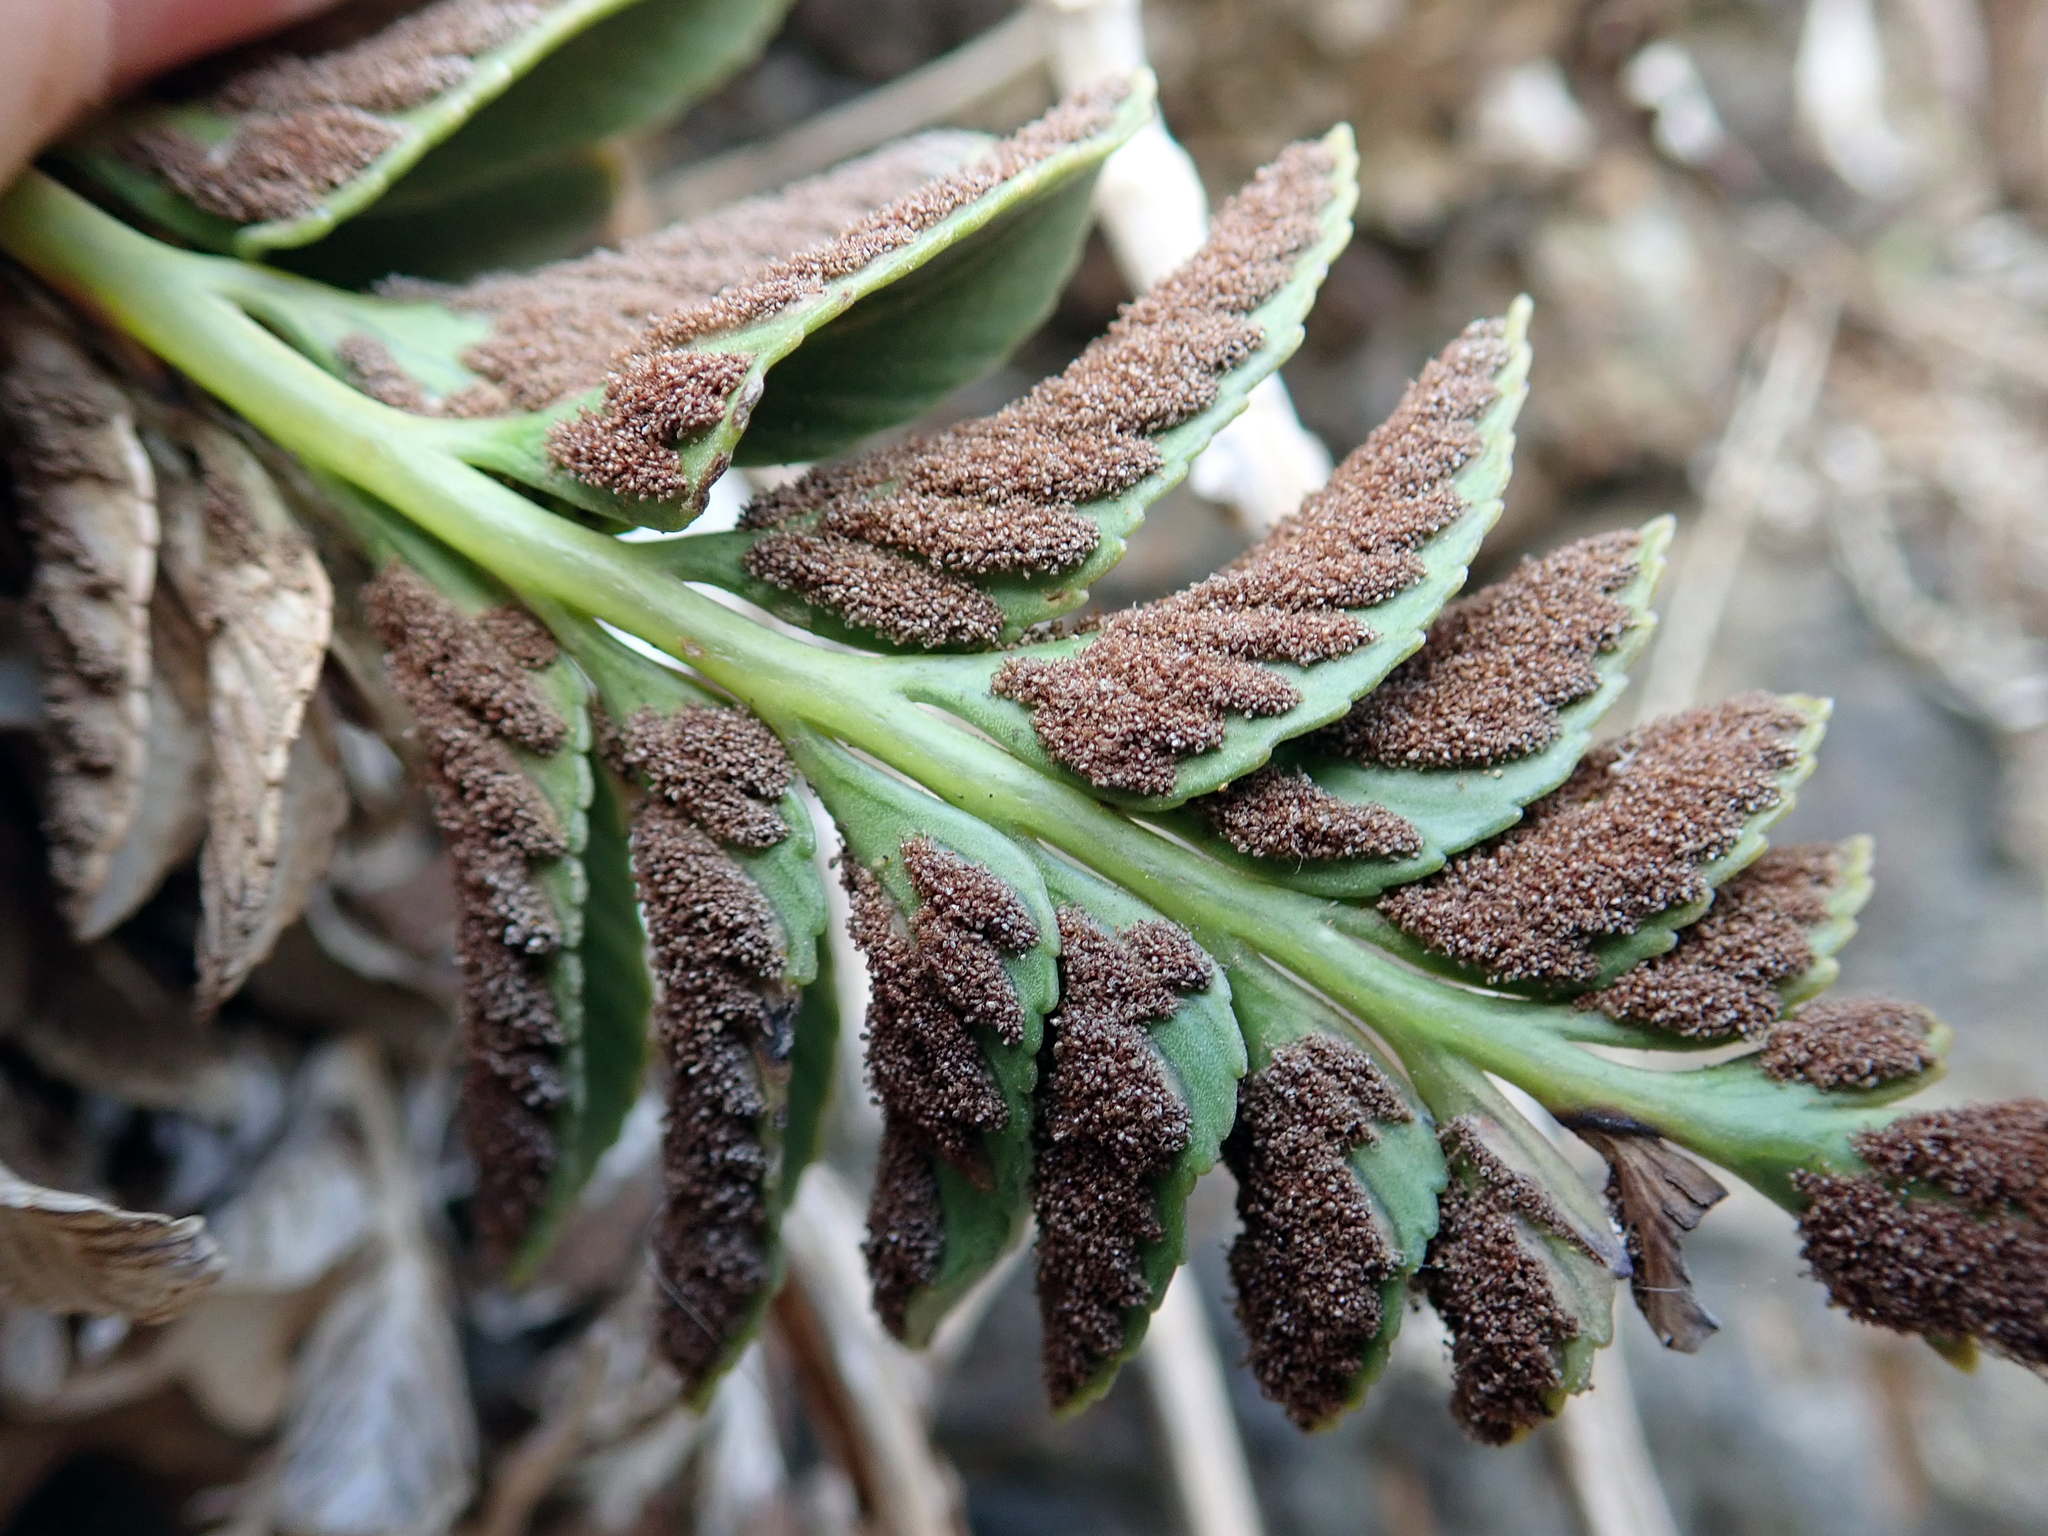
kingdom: Plantae
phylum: Tracheophyta
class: Polypodiopsida
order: Polypodiales
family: Aspleniaceae
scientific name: Aspleniaceae
